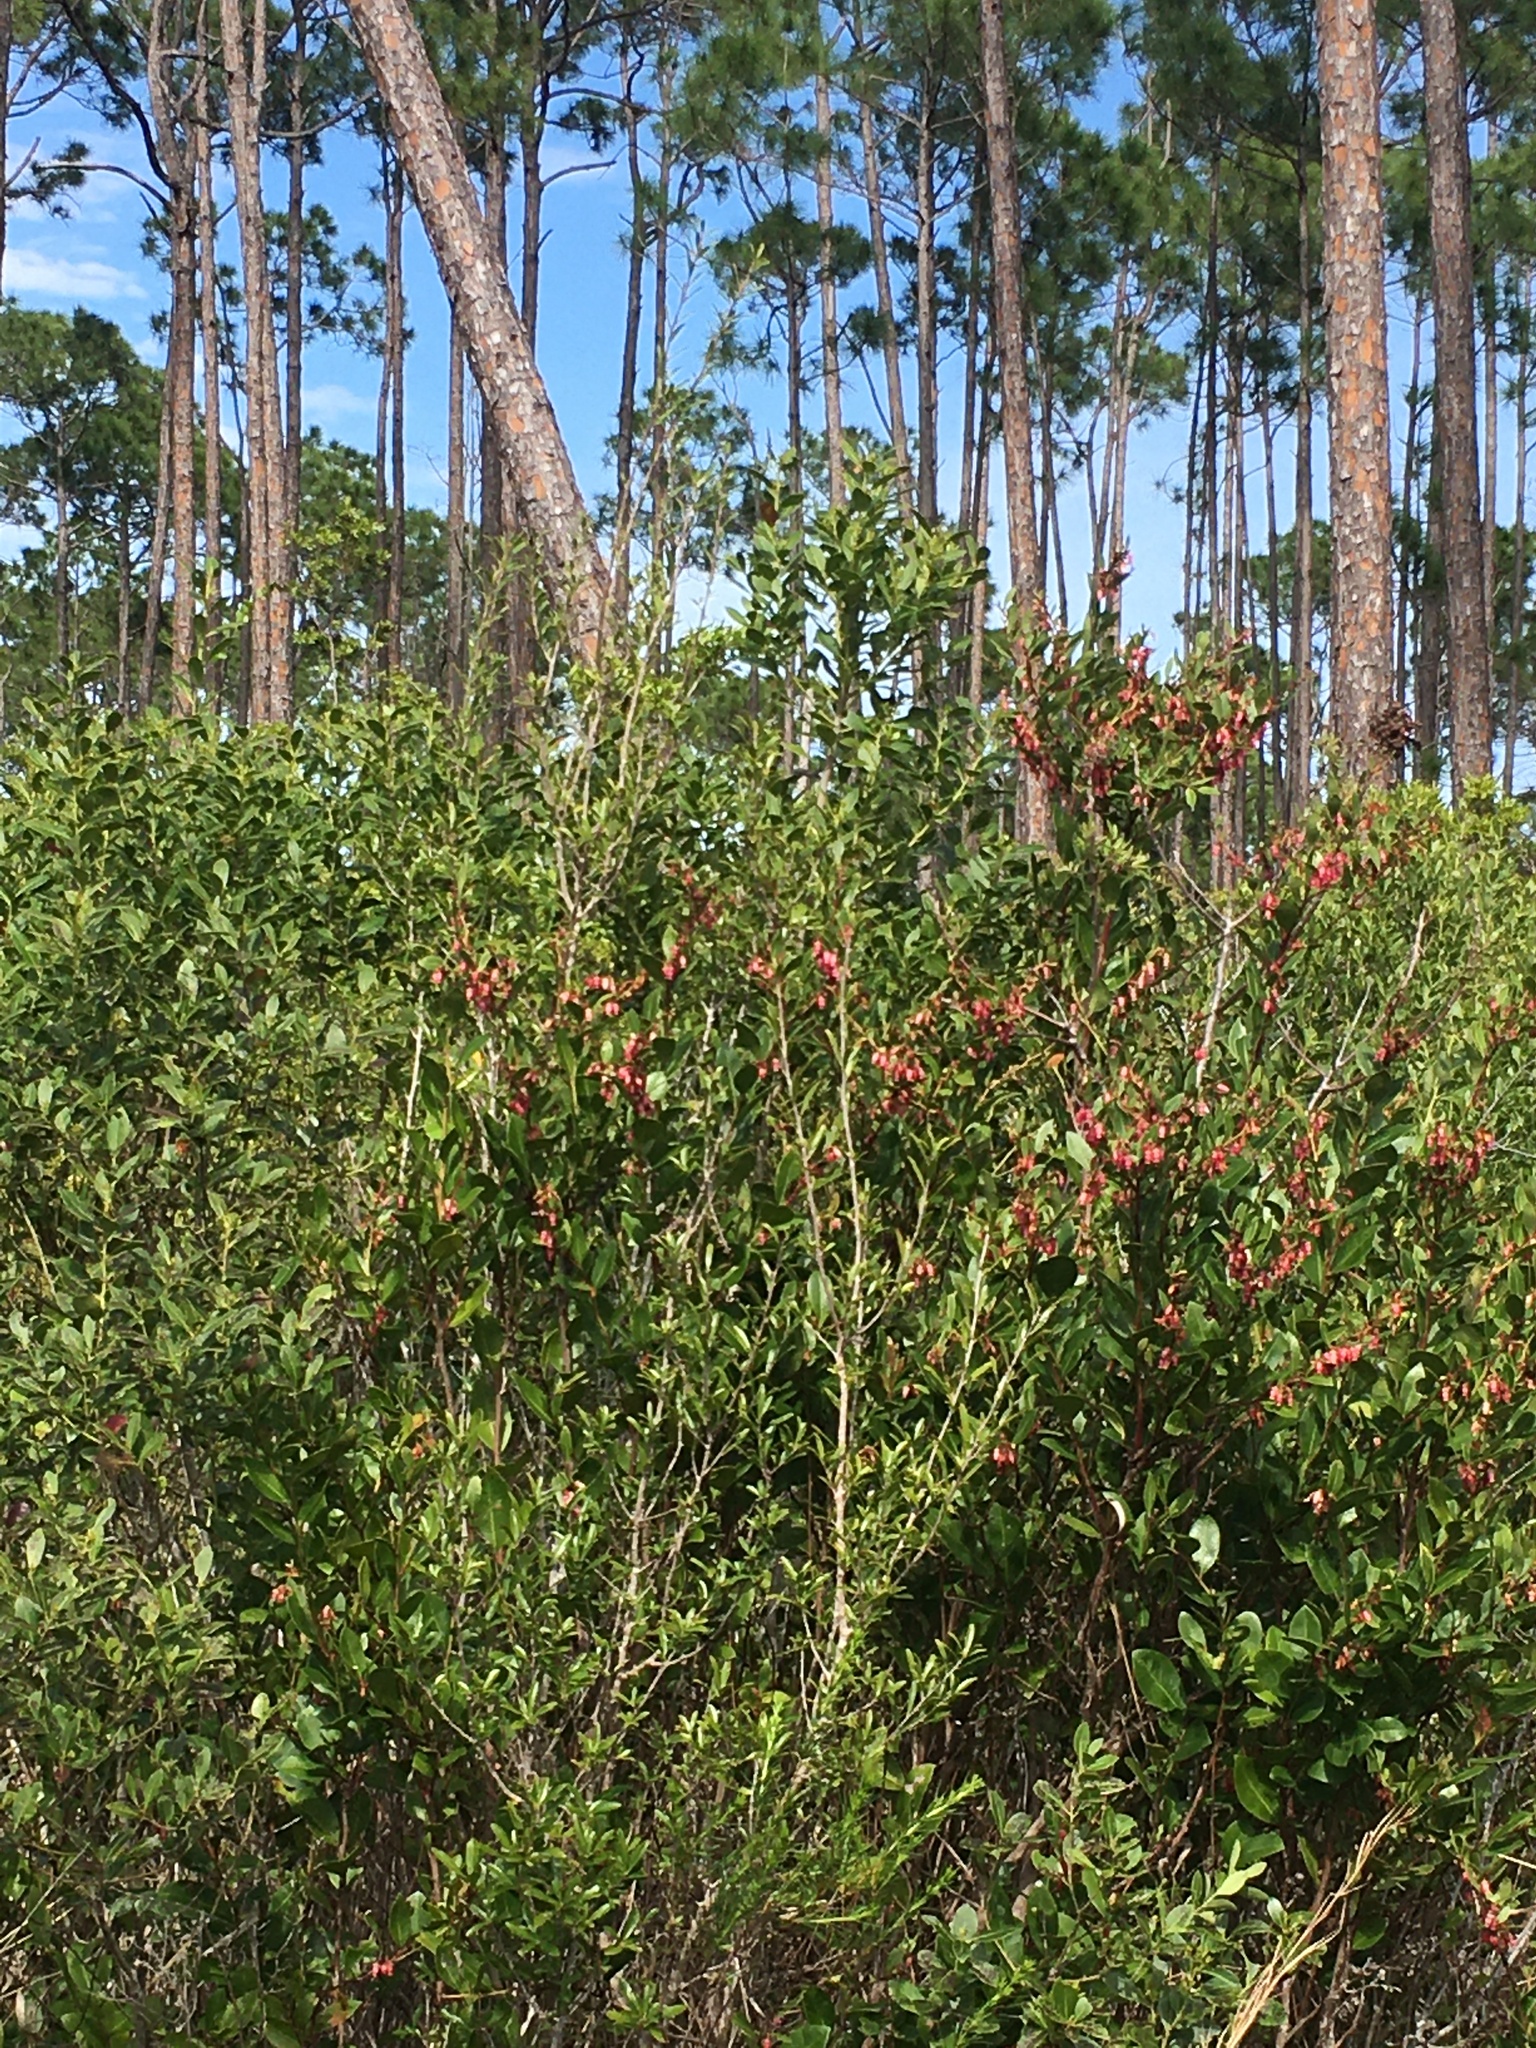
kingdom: Plantae
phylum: Tracheophyta
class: Magnoliopsida
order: Ericales
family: Ericaceae
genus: Lyonia
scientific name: Lyonia lucida
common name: Fetterbush
